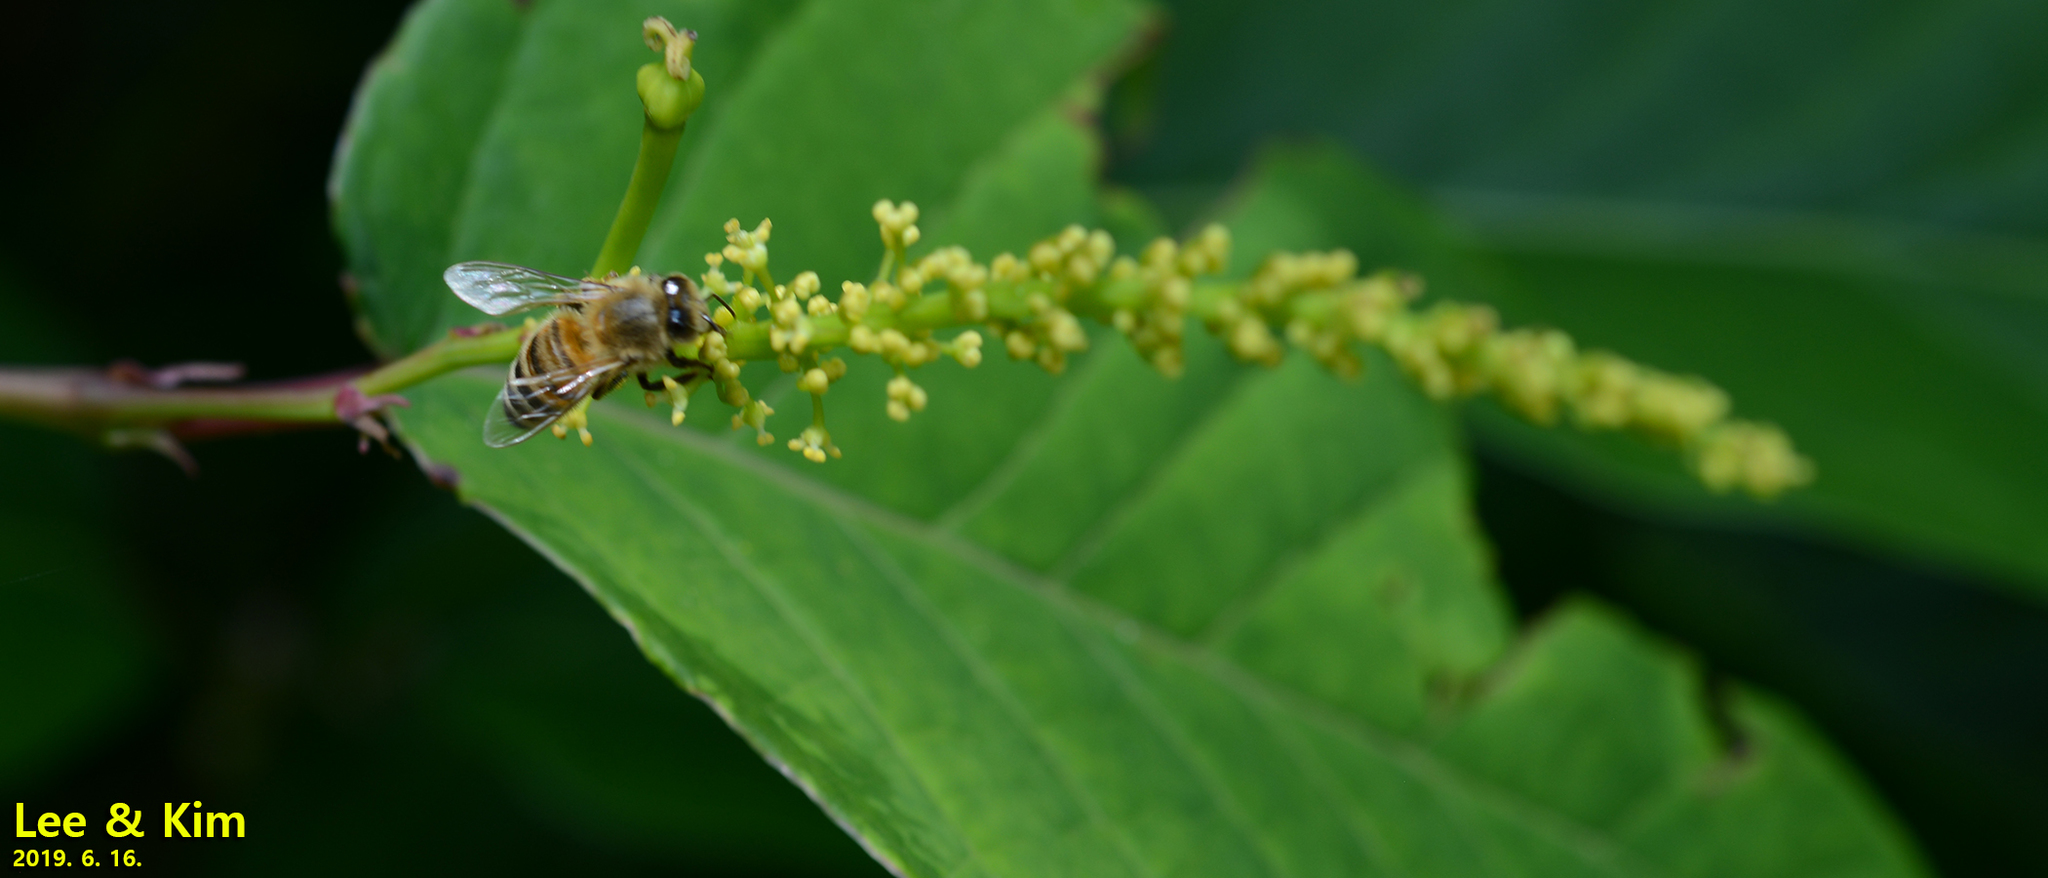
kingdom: Animalia
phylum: Arthropoda
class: Insecta
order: Hymenoptera
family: Apidae
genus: Apis
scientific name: Apis mellifera
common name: Honey bee
